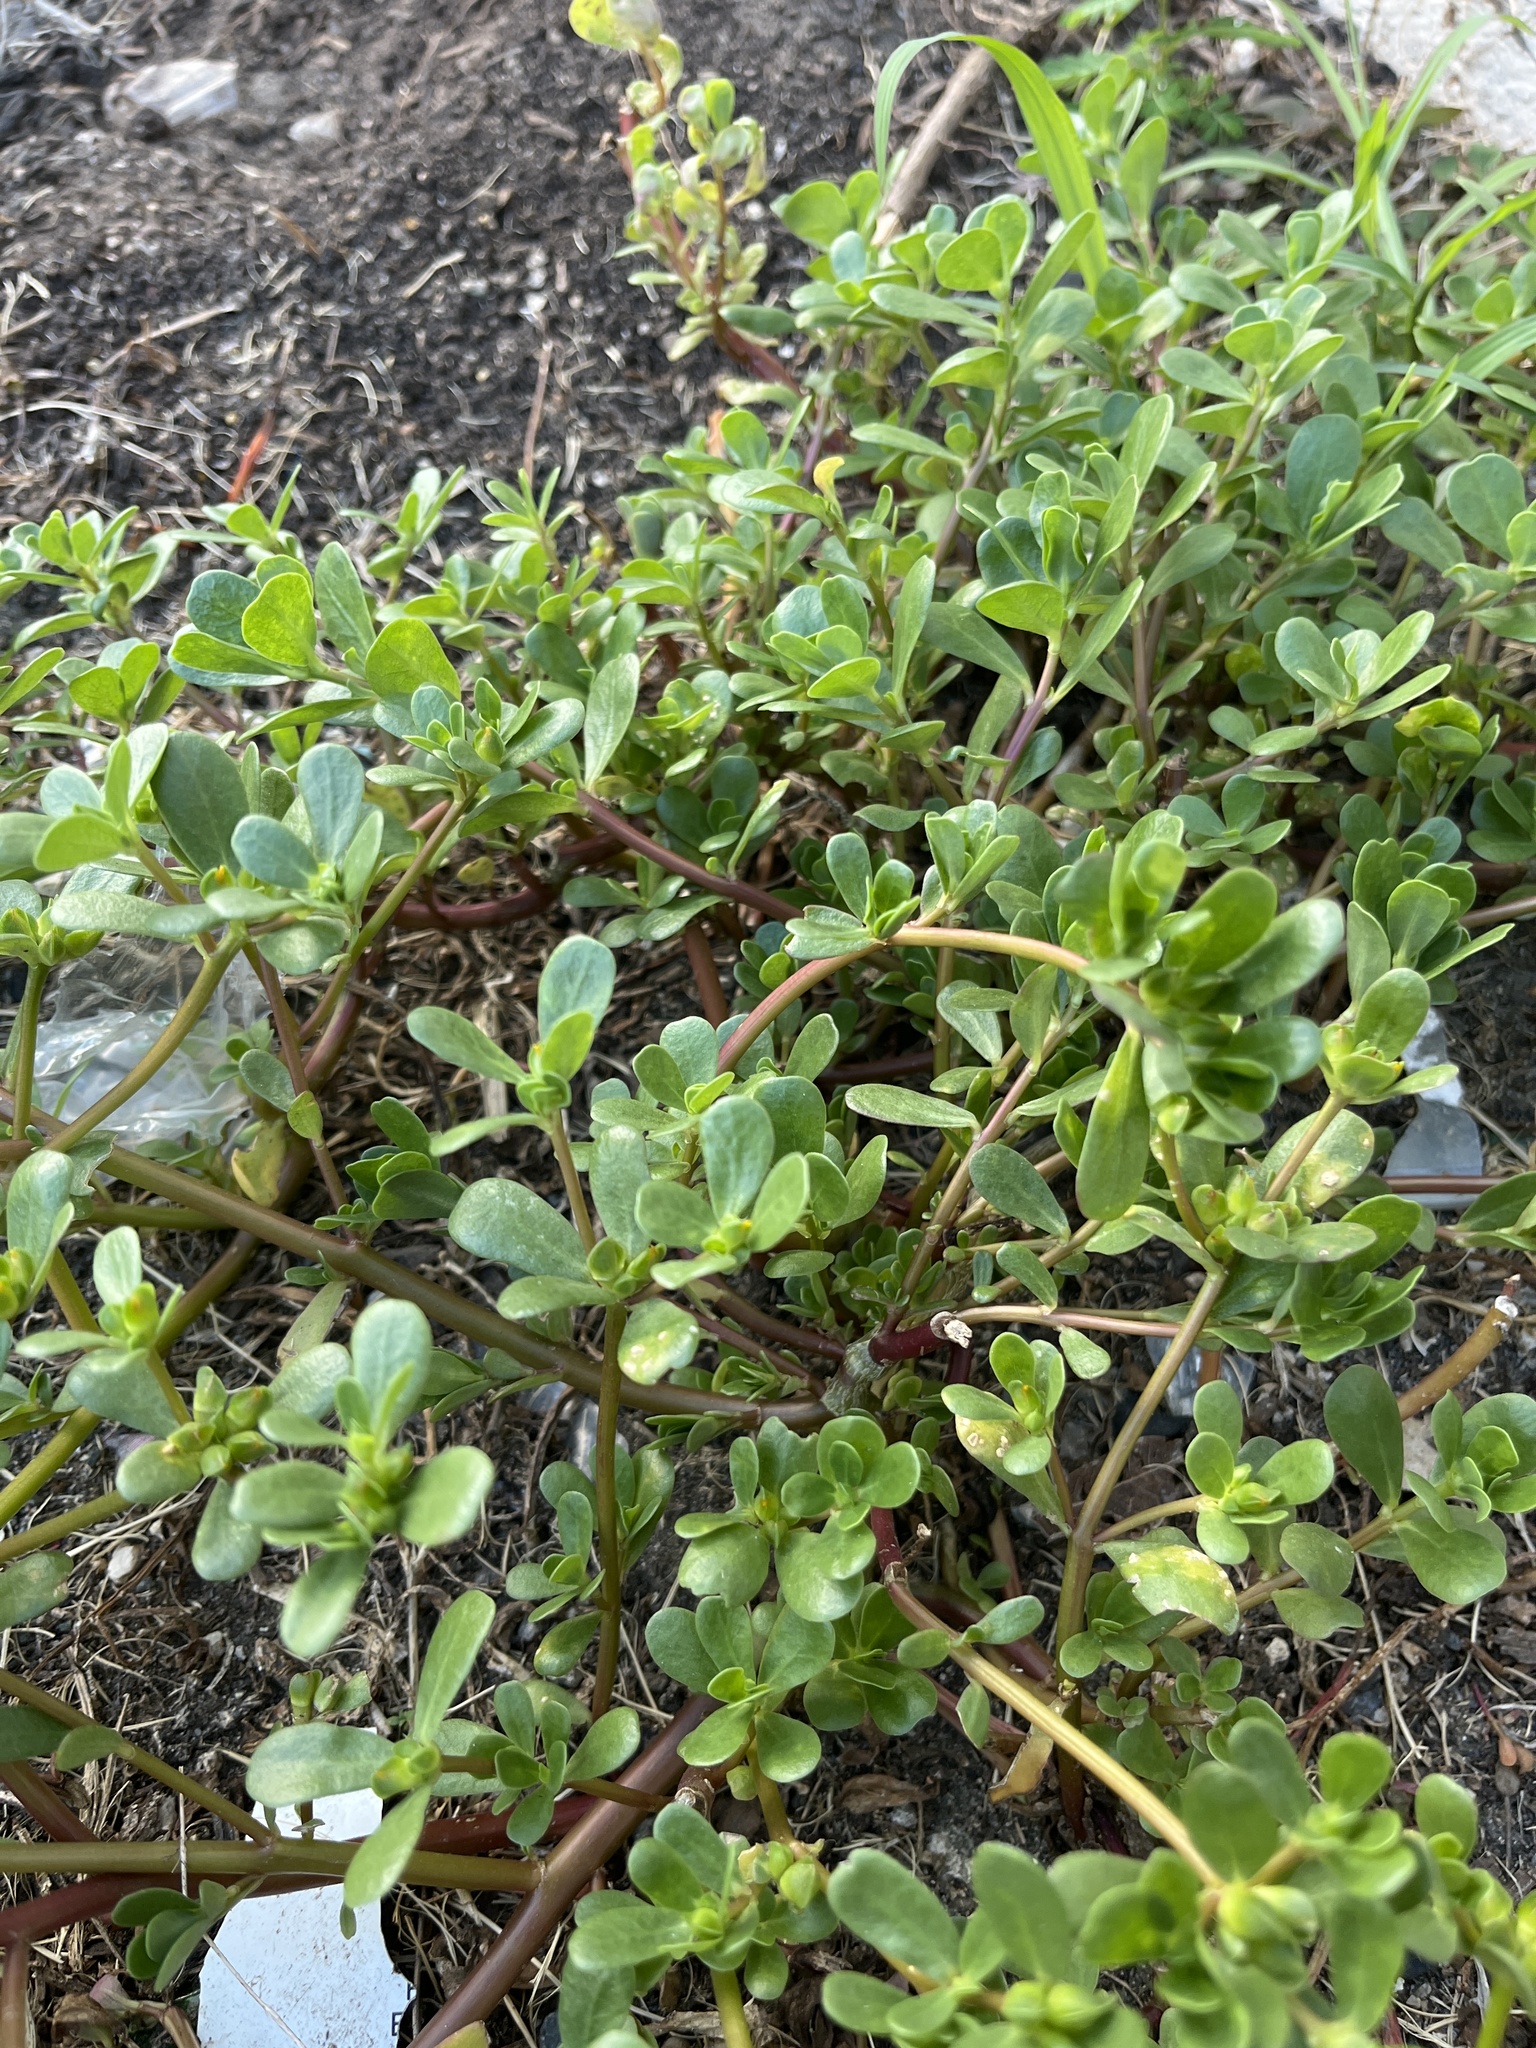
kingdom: Plantae
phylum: Tracheophyta
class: Magnoliopsida
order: Caryophyllales
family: Portulacaceae
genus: Portulaca
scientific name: Portulaca oleracea
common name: Common purslane
